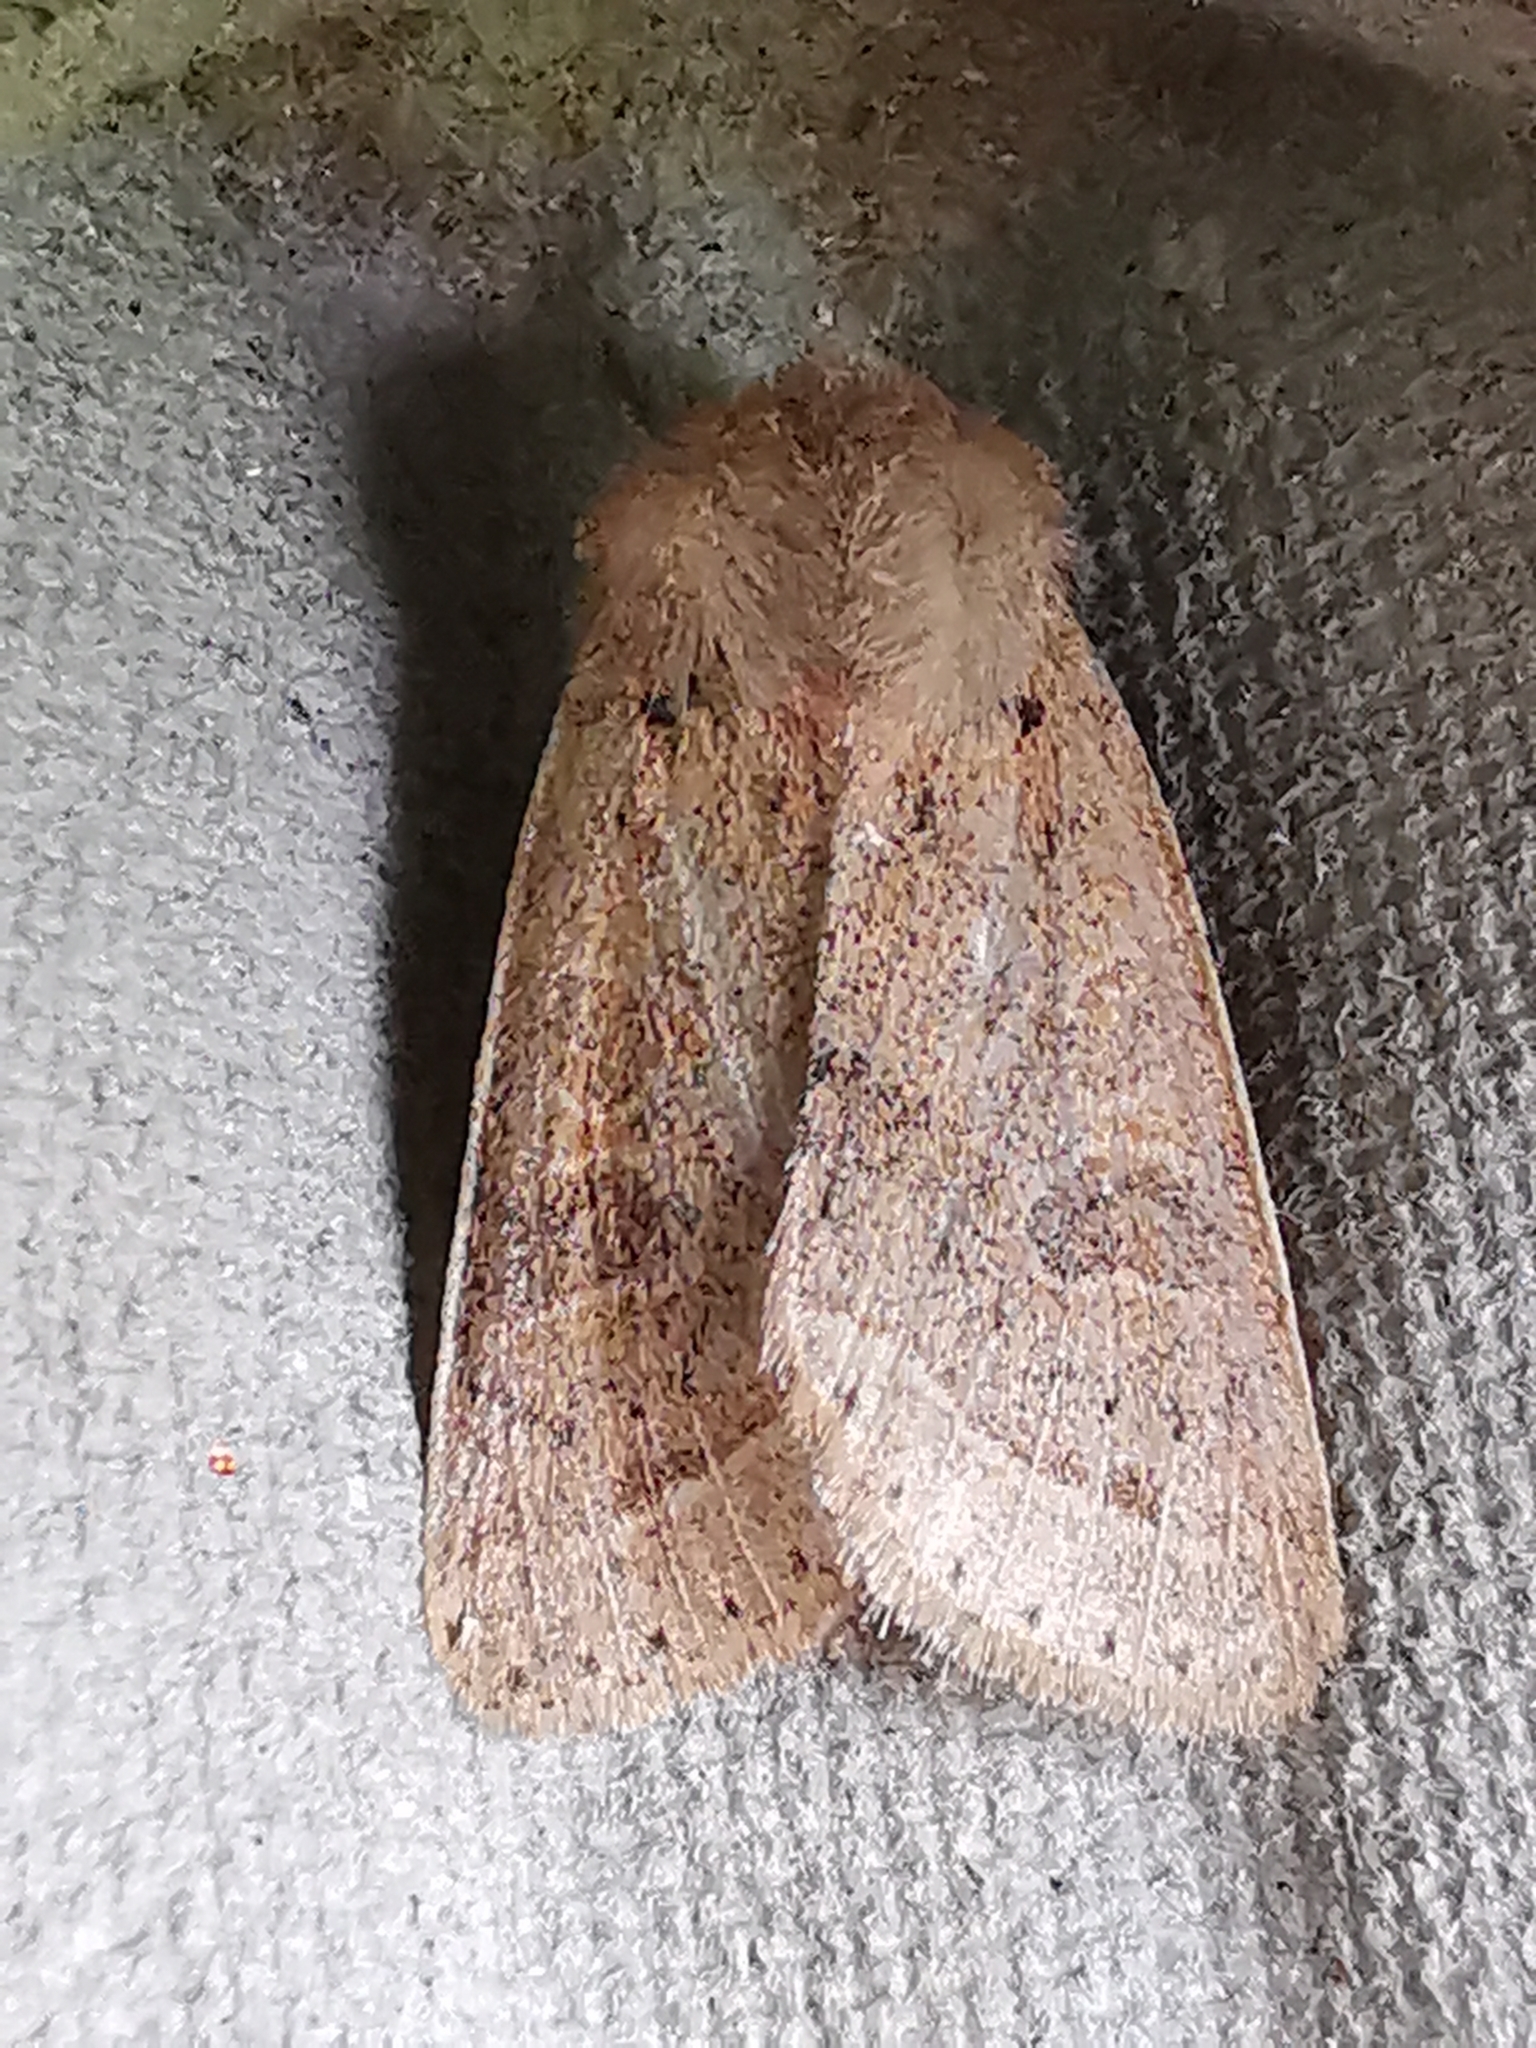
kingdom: Animalia
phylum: Arthropoda
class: Insecta
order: Lepidoptera
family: Noctuidae
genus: Orthosia
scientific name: Orthosia cerasi
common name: Common quaker
